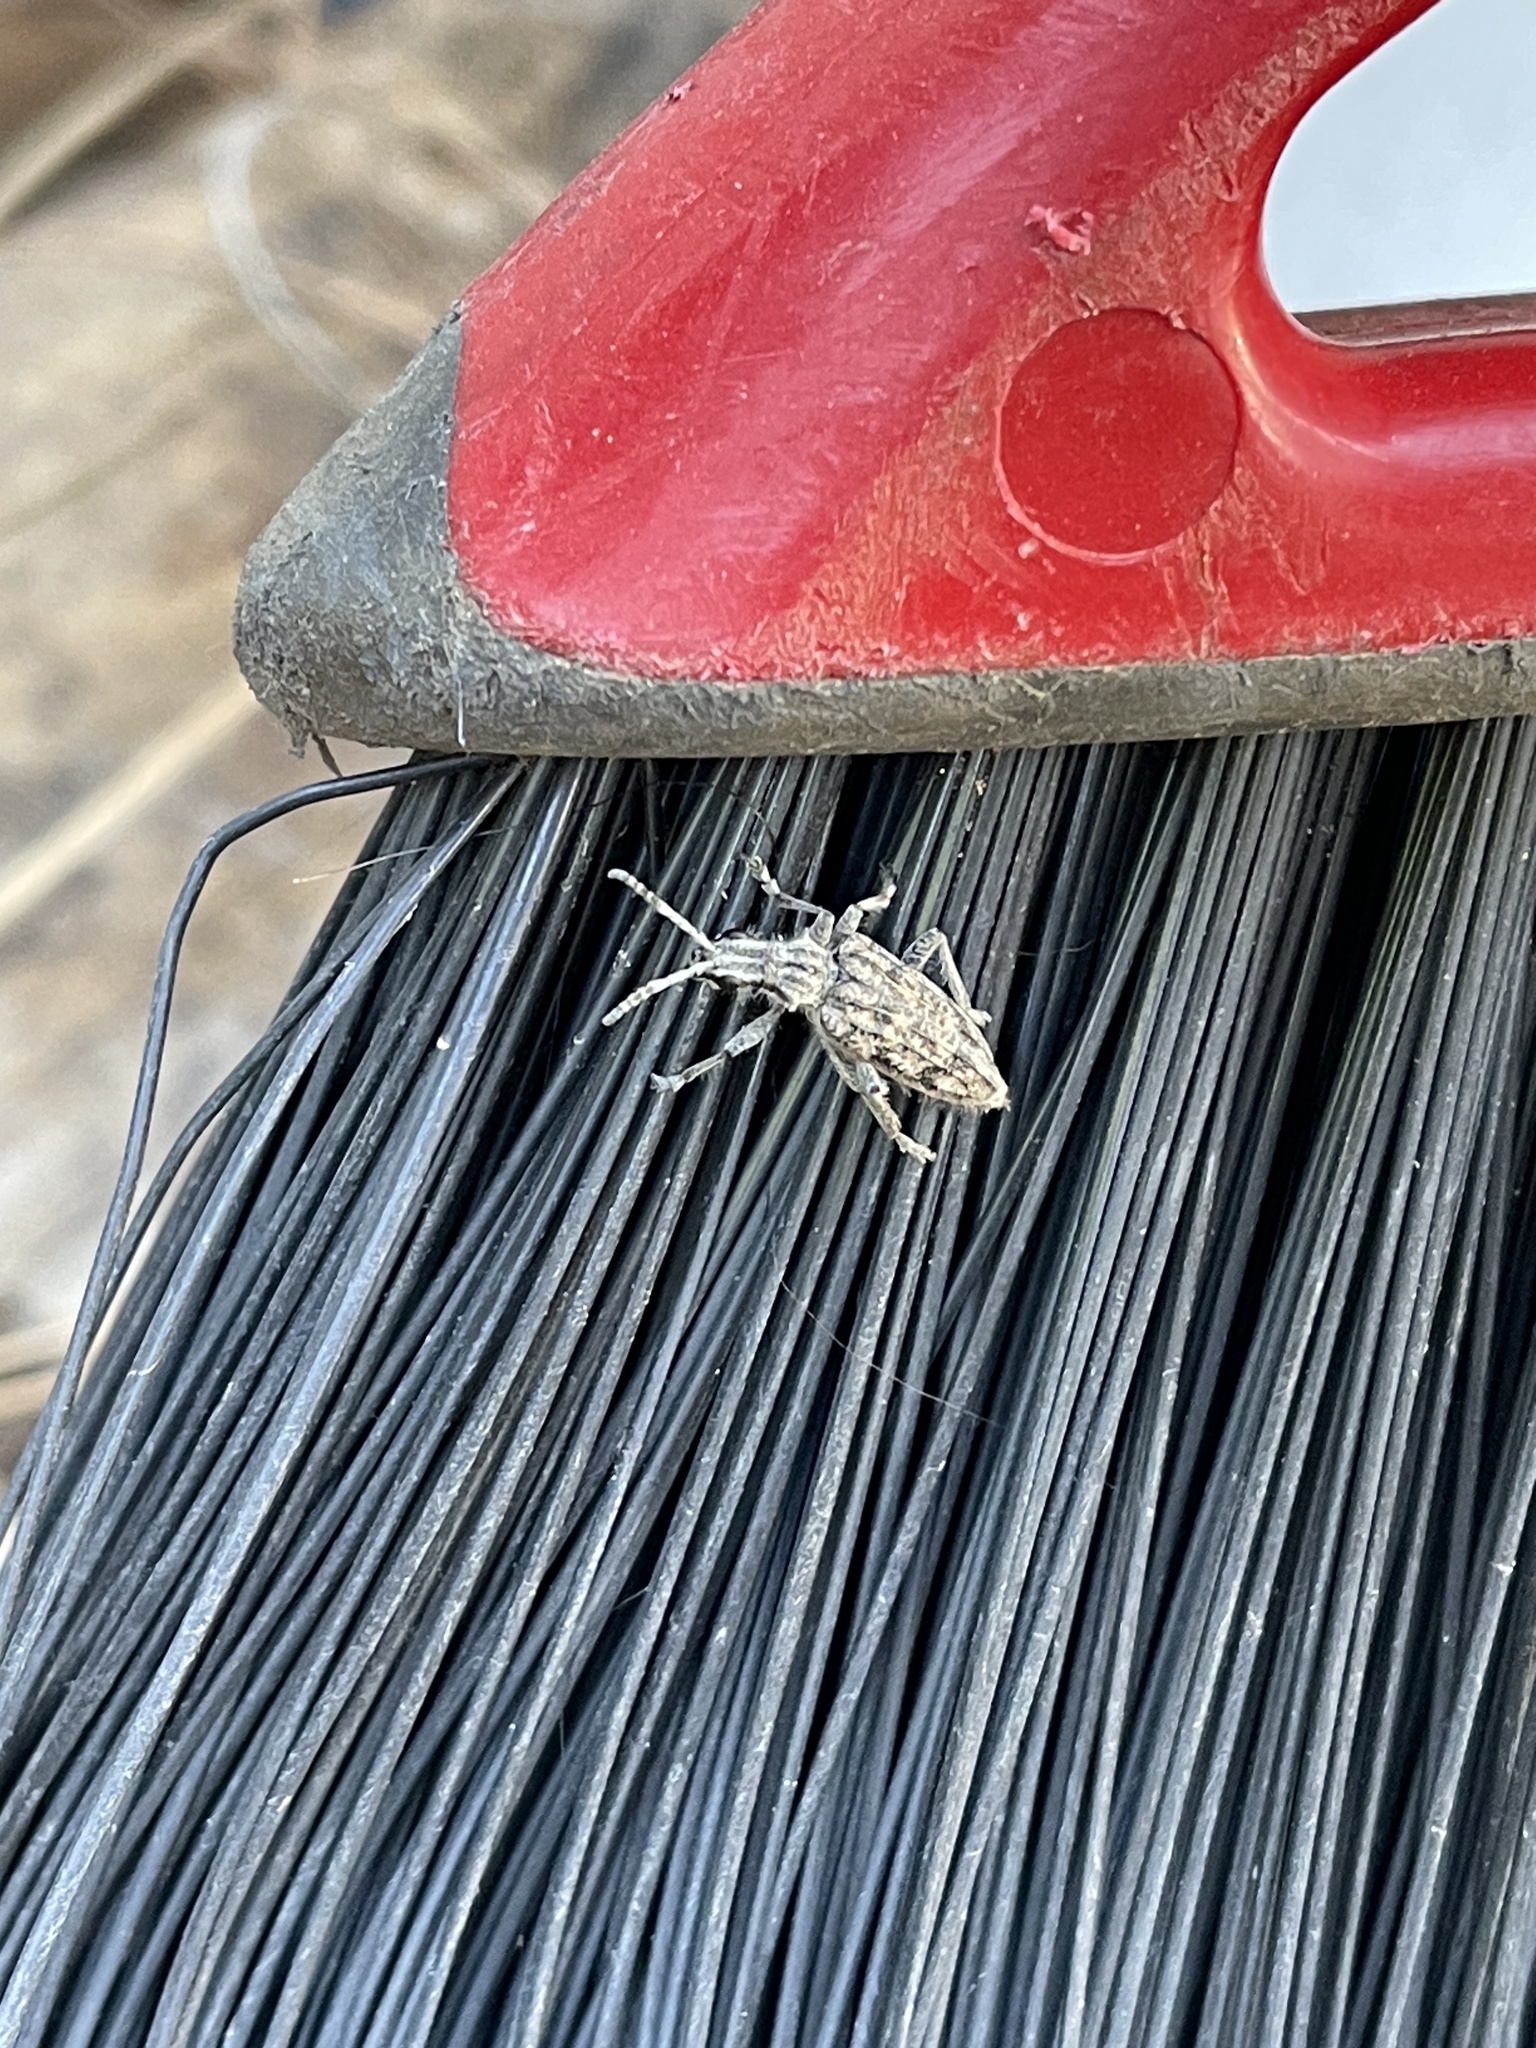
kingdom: Animalia
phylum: Arthropoda
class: Insecta
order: Coleoptera
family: Cerambycidae
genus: Rhagium
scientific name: Rhagium inquisitor
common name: Ribbed pine borer
